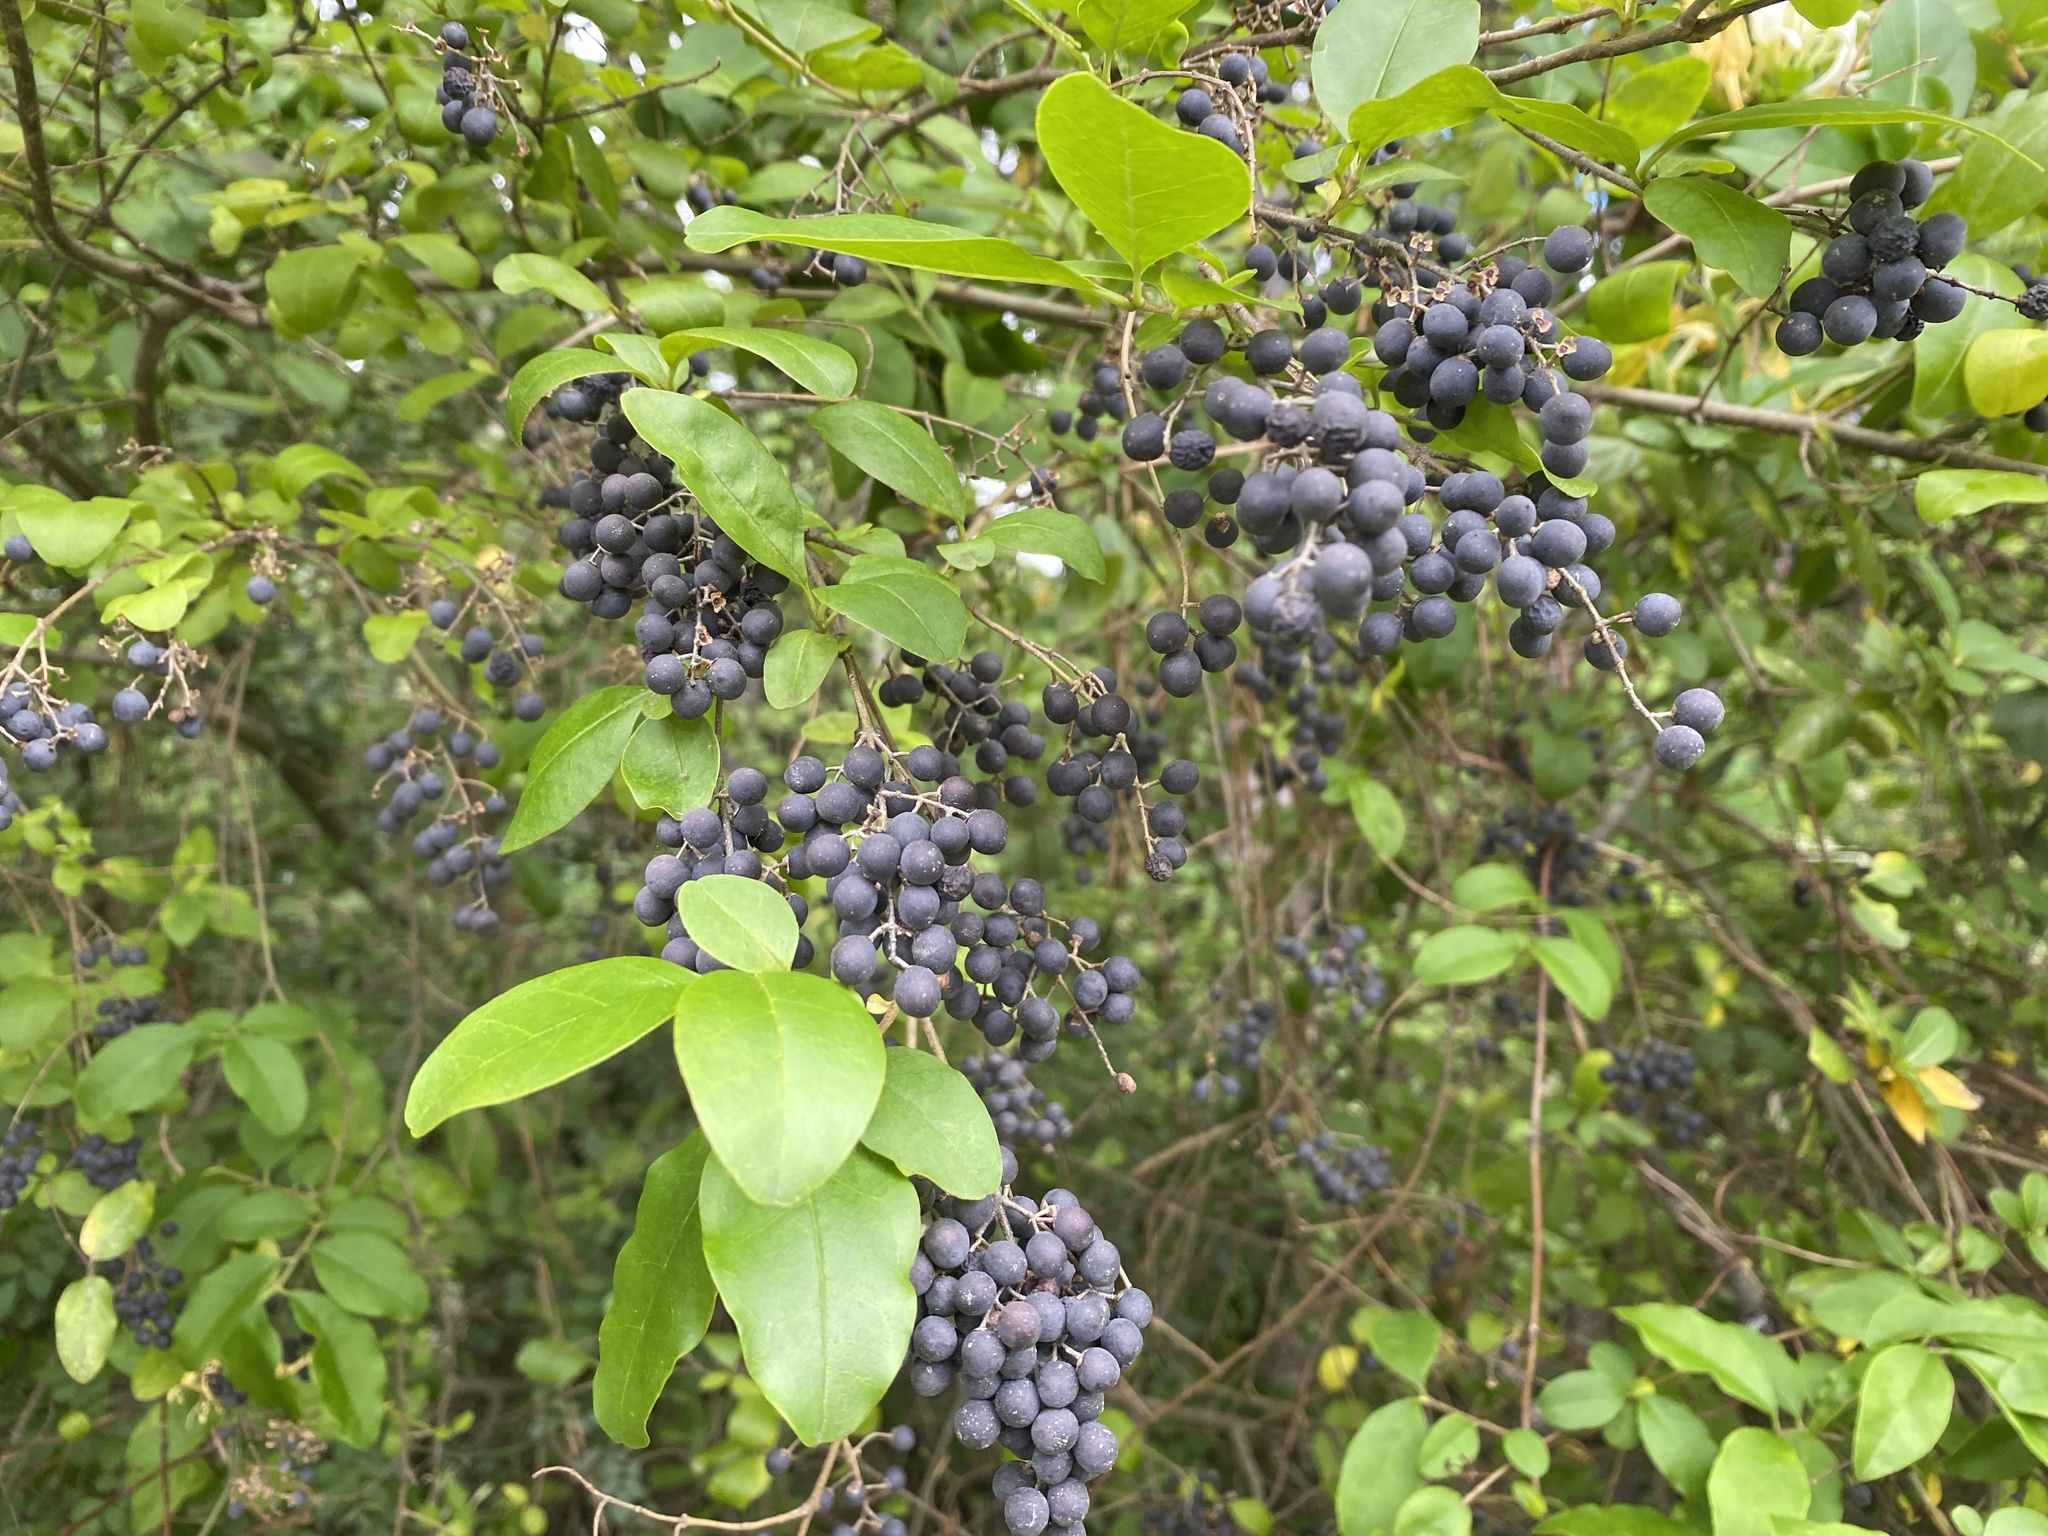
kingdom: Plantae
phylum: Tracheophyta
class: Magnoliopsida
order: Lamiales
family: Oleaceae
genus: Ligustrum
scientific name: Ligustrum sinense
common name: Chinese privet
